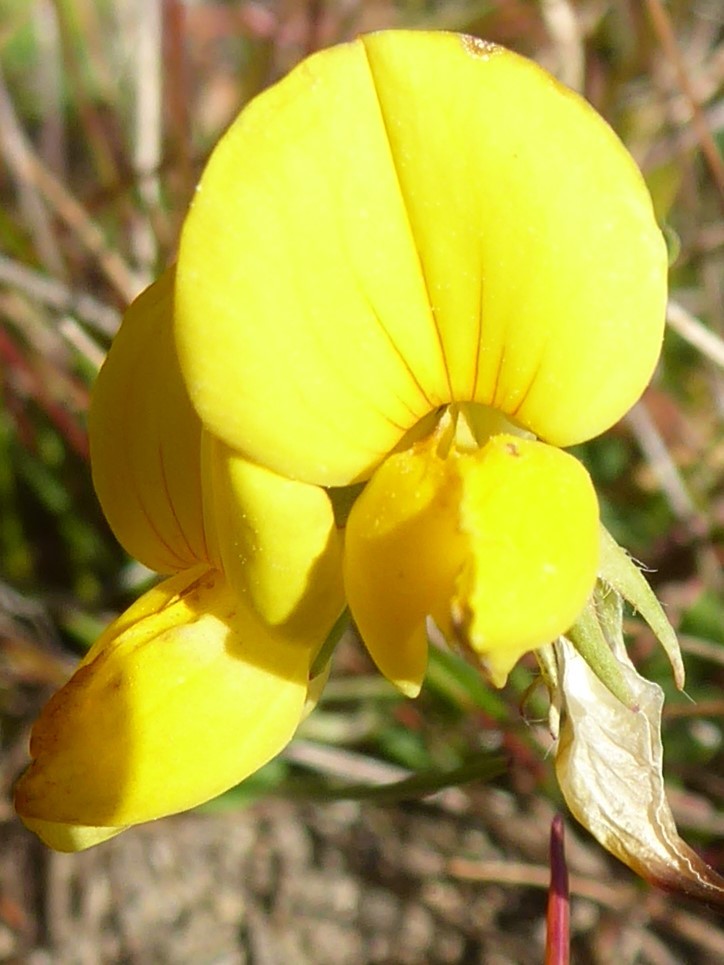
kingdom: Plantae
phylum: Tracheophyta
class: Magnoliopsida
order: Fabales
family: Fabaceae
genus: Lotus
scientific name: Lotus corniculatus
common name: Common bird's-foot-trefoil
